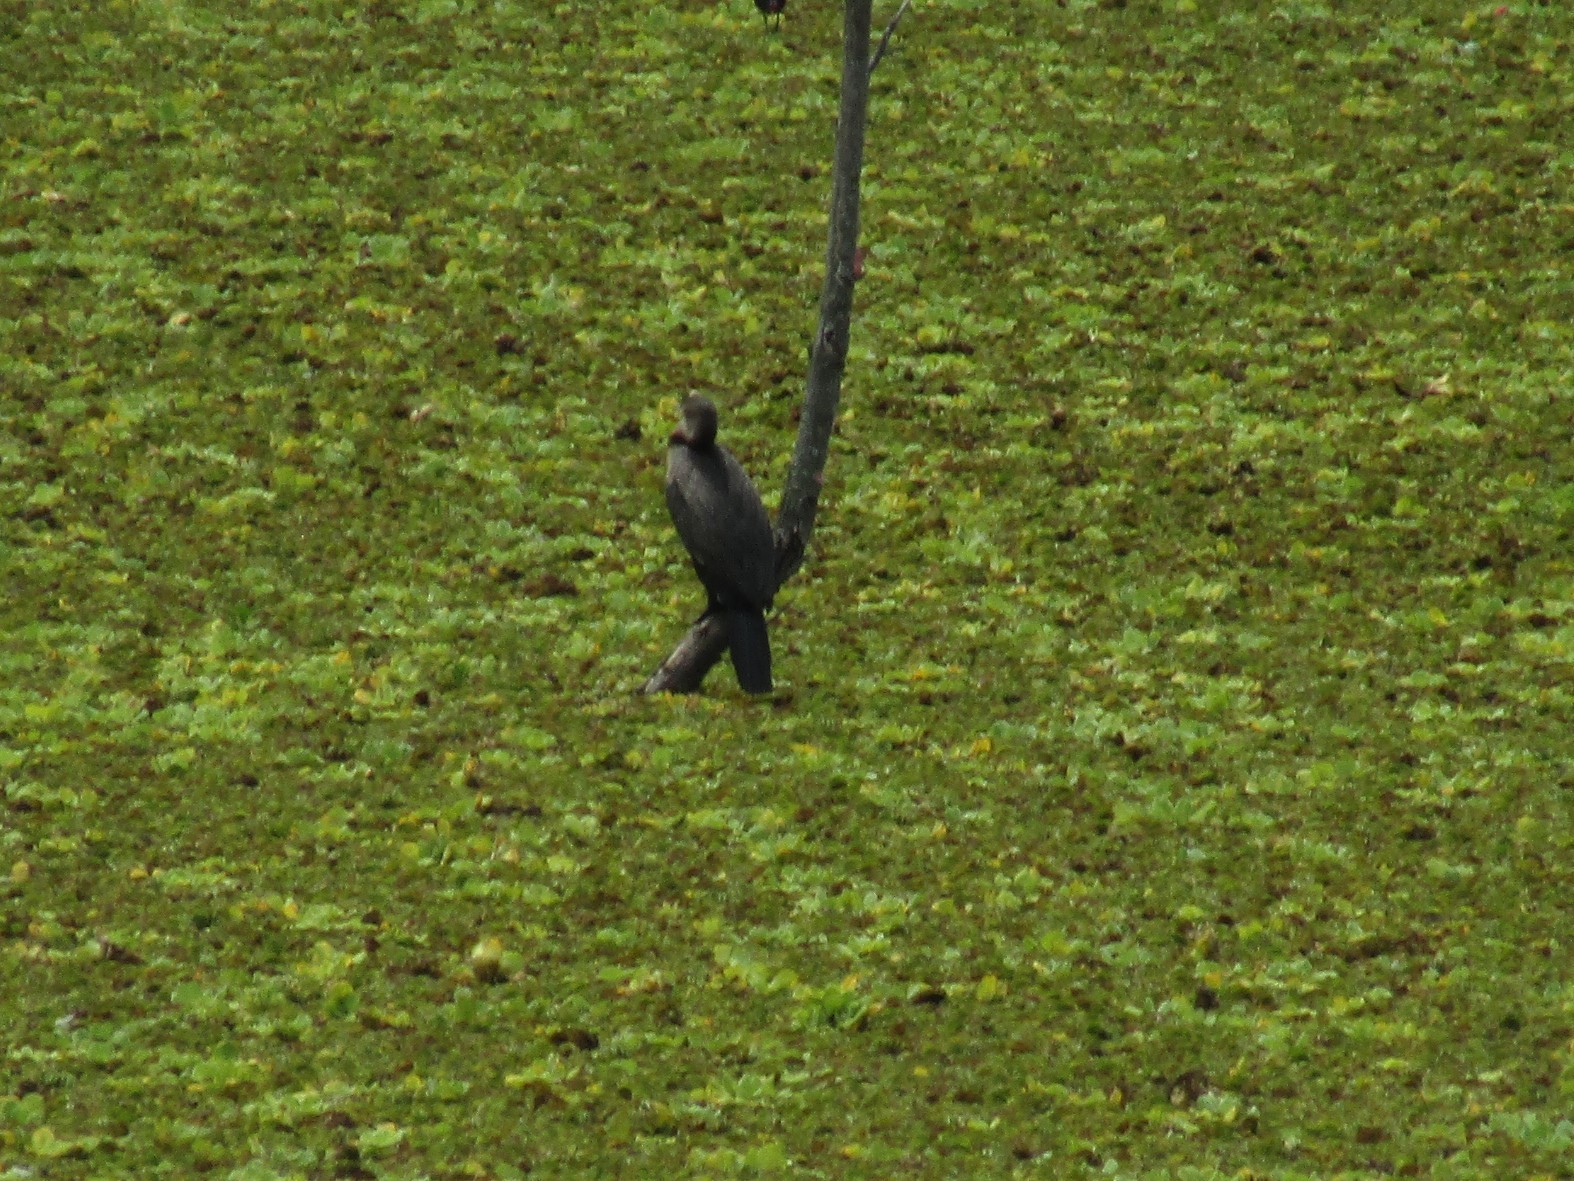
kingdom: Animalia
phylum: Chordata
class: Aves
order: Suliformes
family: Phalacrocoracidae
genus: Phalacrocorax
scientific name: Phalacrocorax brasilianus
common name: Neotropic cormorant
